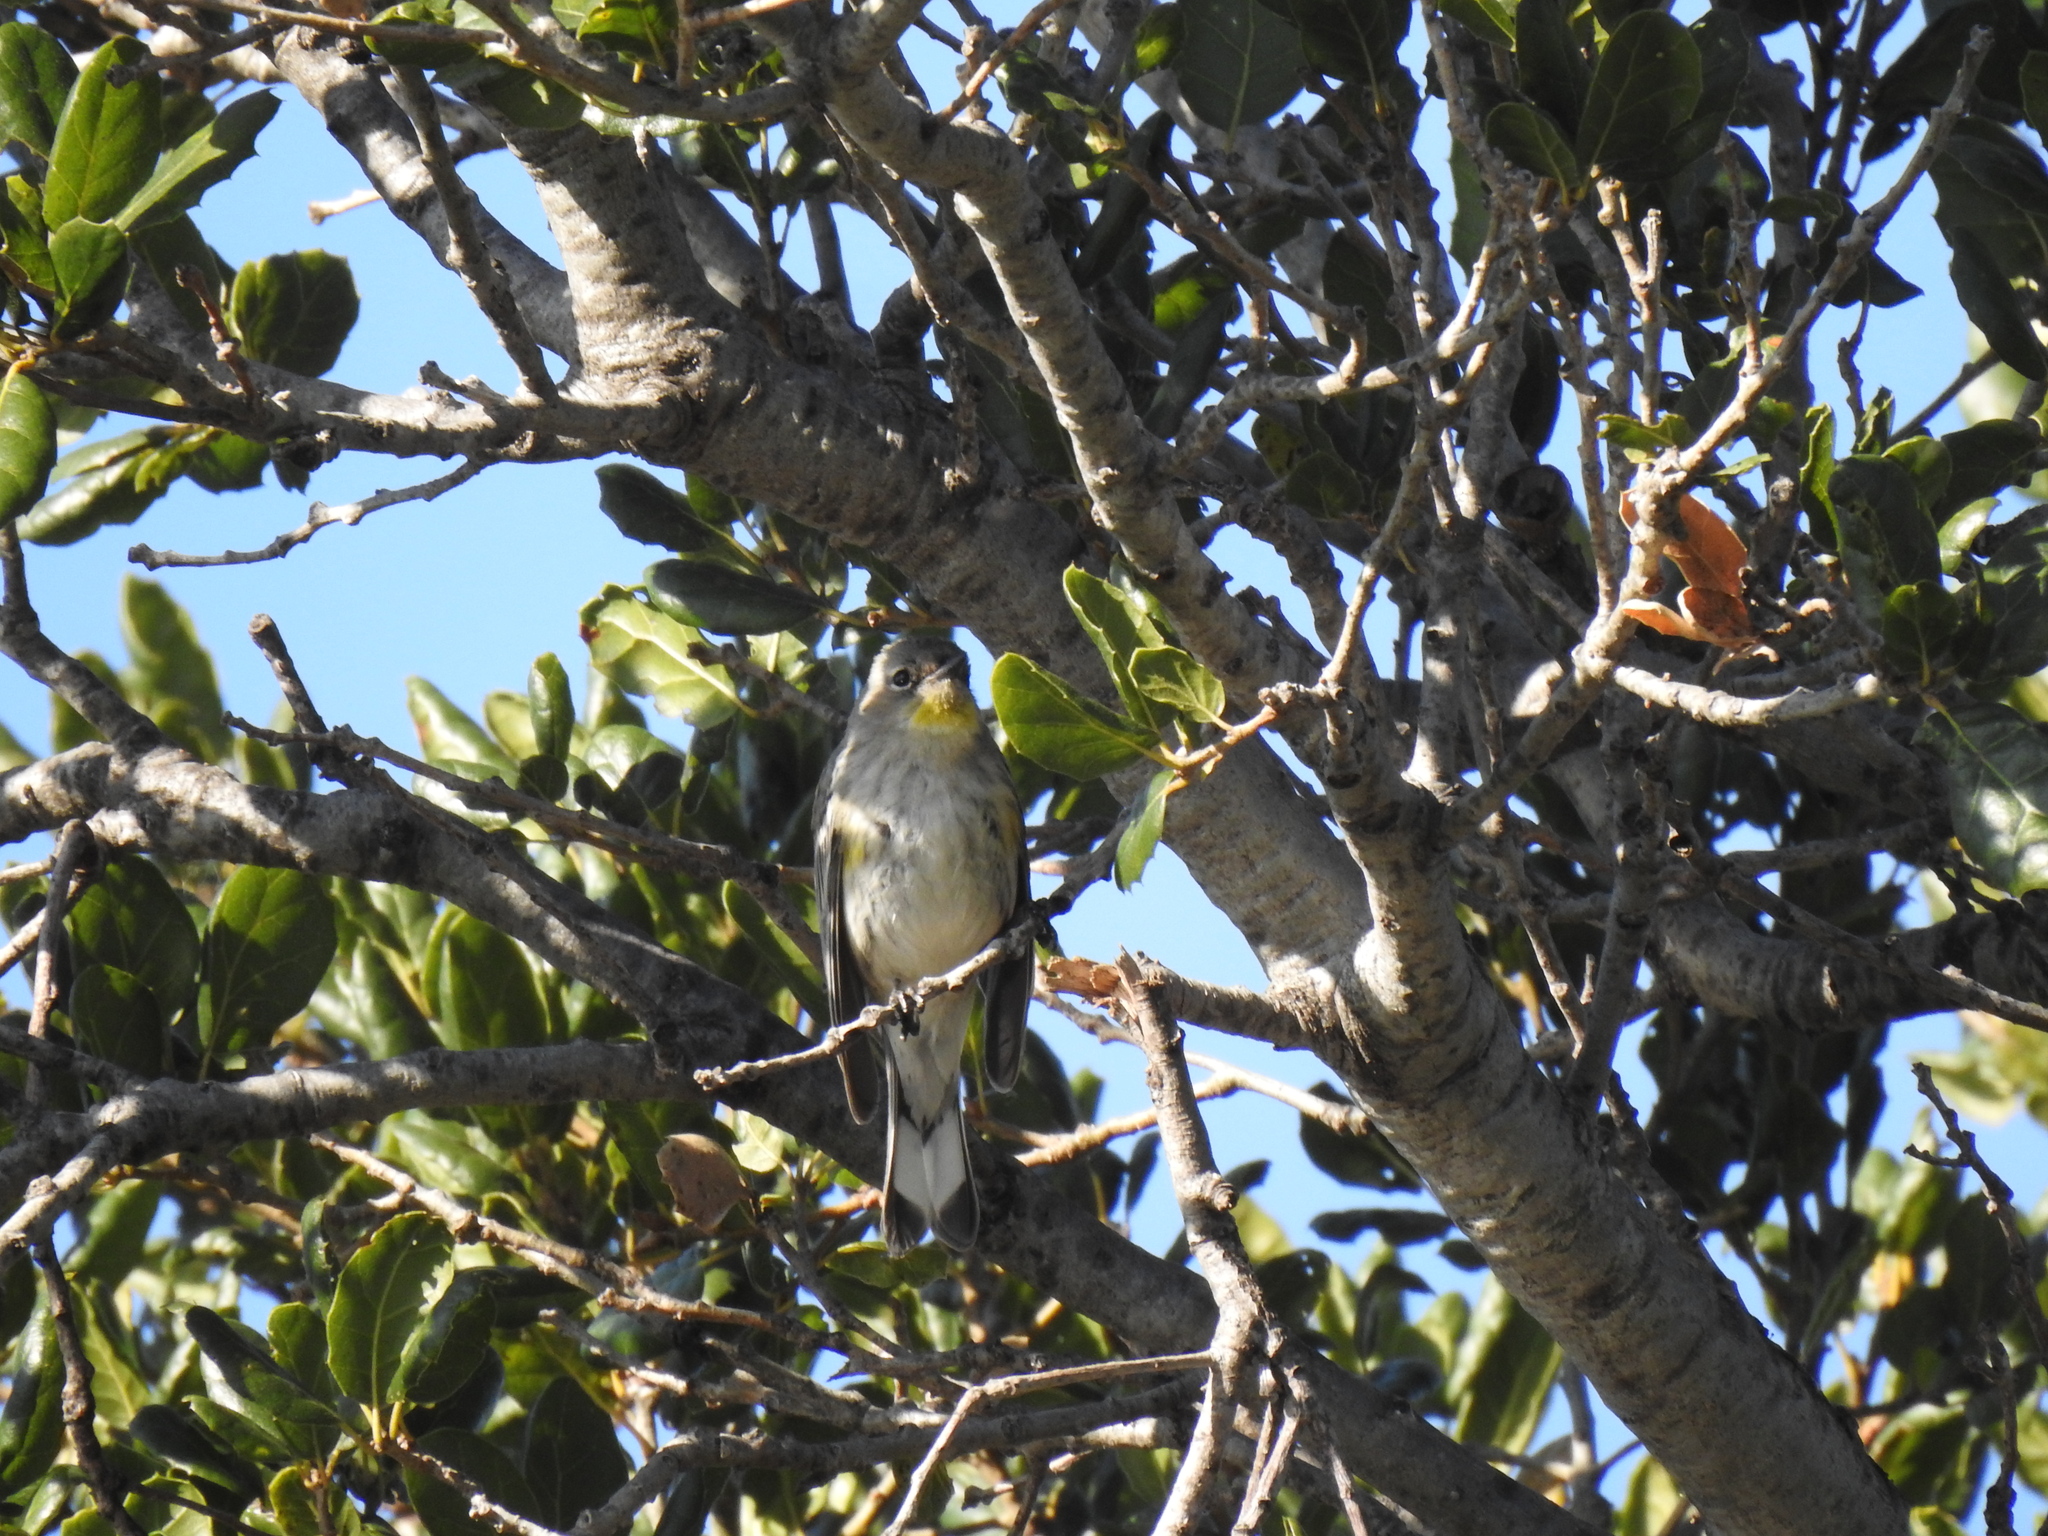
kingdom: Animalia
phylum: Chordata
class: Aves
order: Passeriformes
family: Parulidae
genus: Setophaga
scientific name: Setophaga coronata
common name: Myrtle warbler
